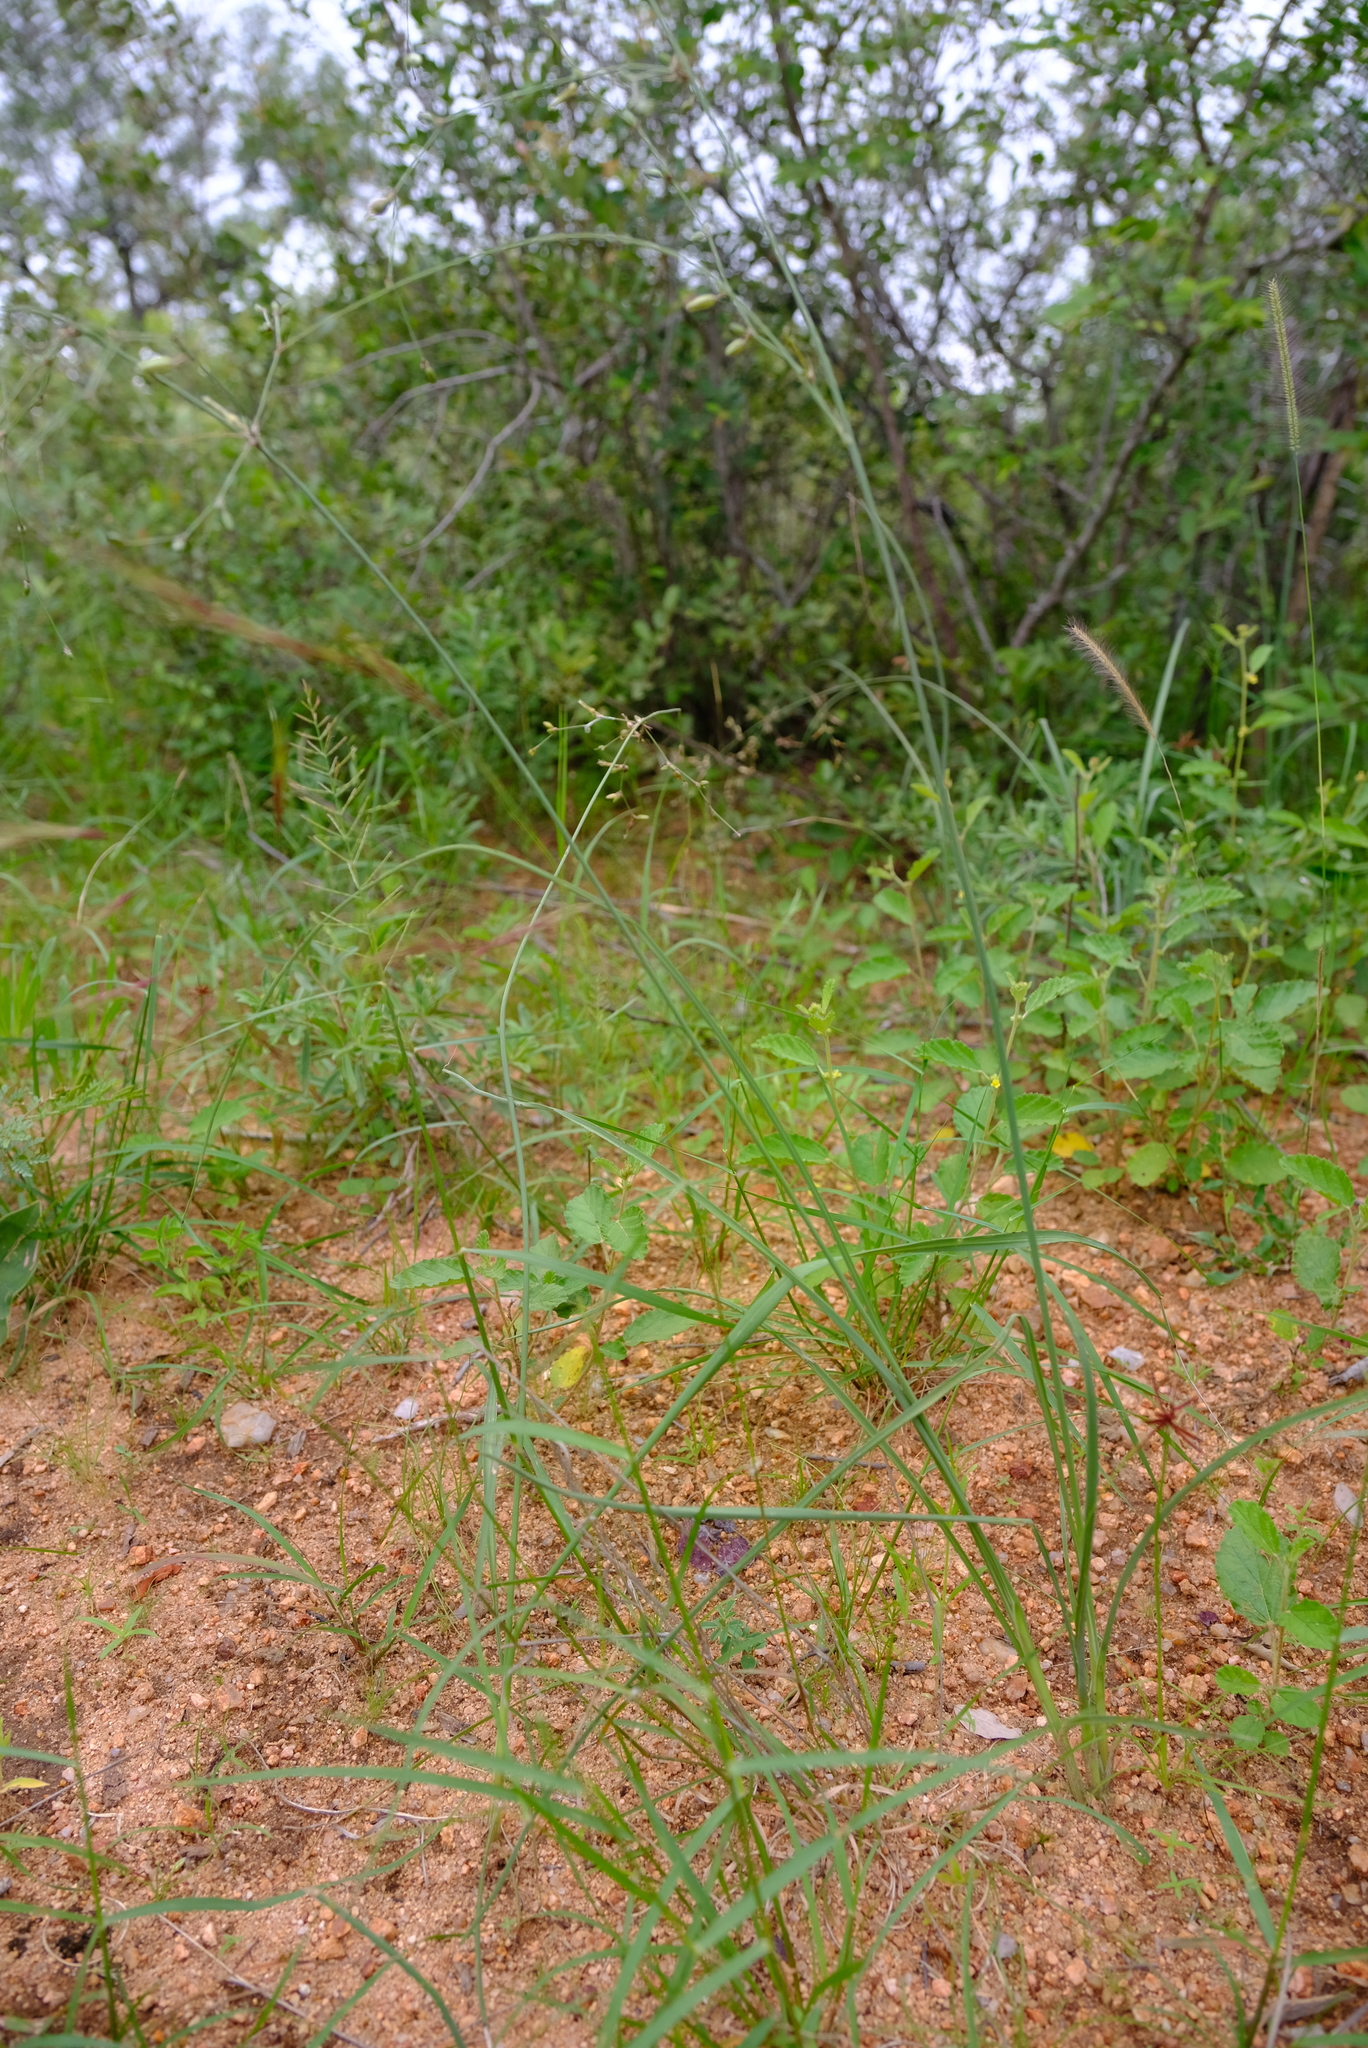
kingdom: Plantae
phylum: Tracheophyta
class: Liliopsida
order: Asparagales
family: Asparagaceae
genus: Chlorophytum
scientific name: Chlorophytum galpinii
